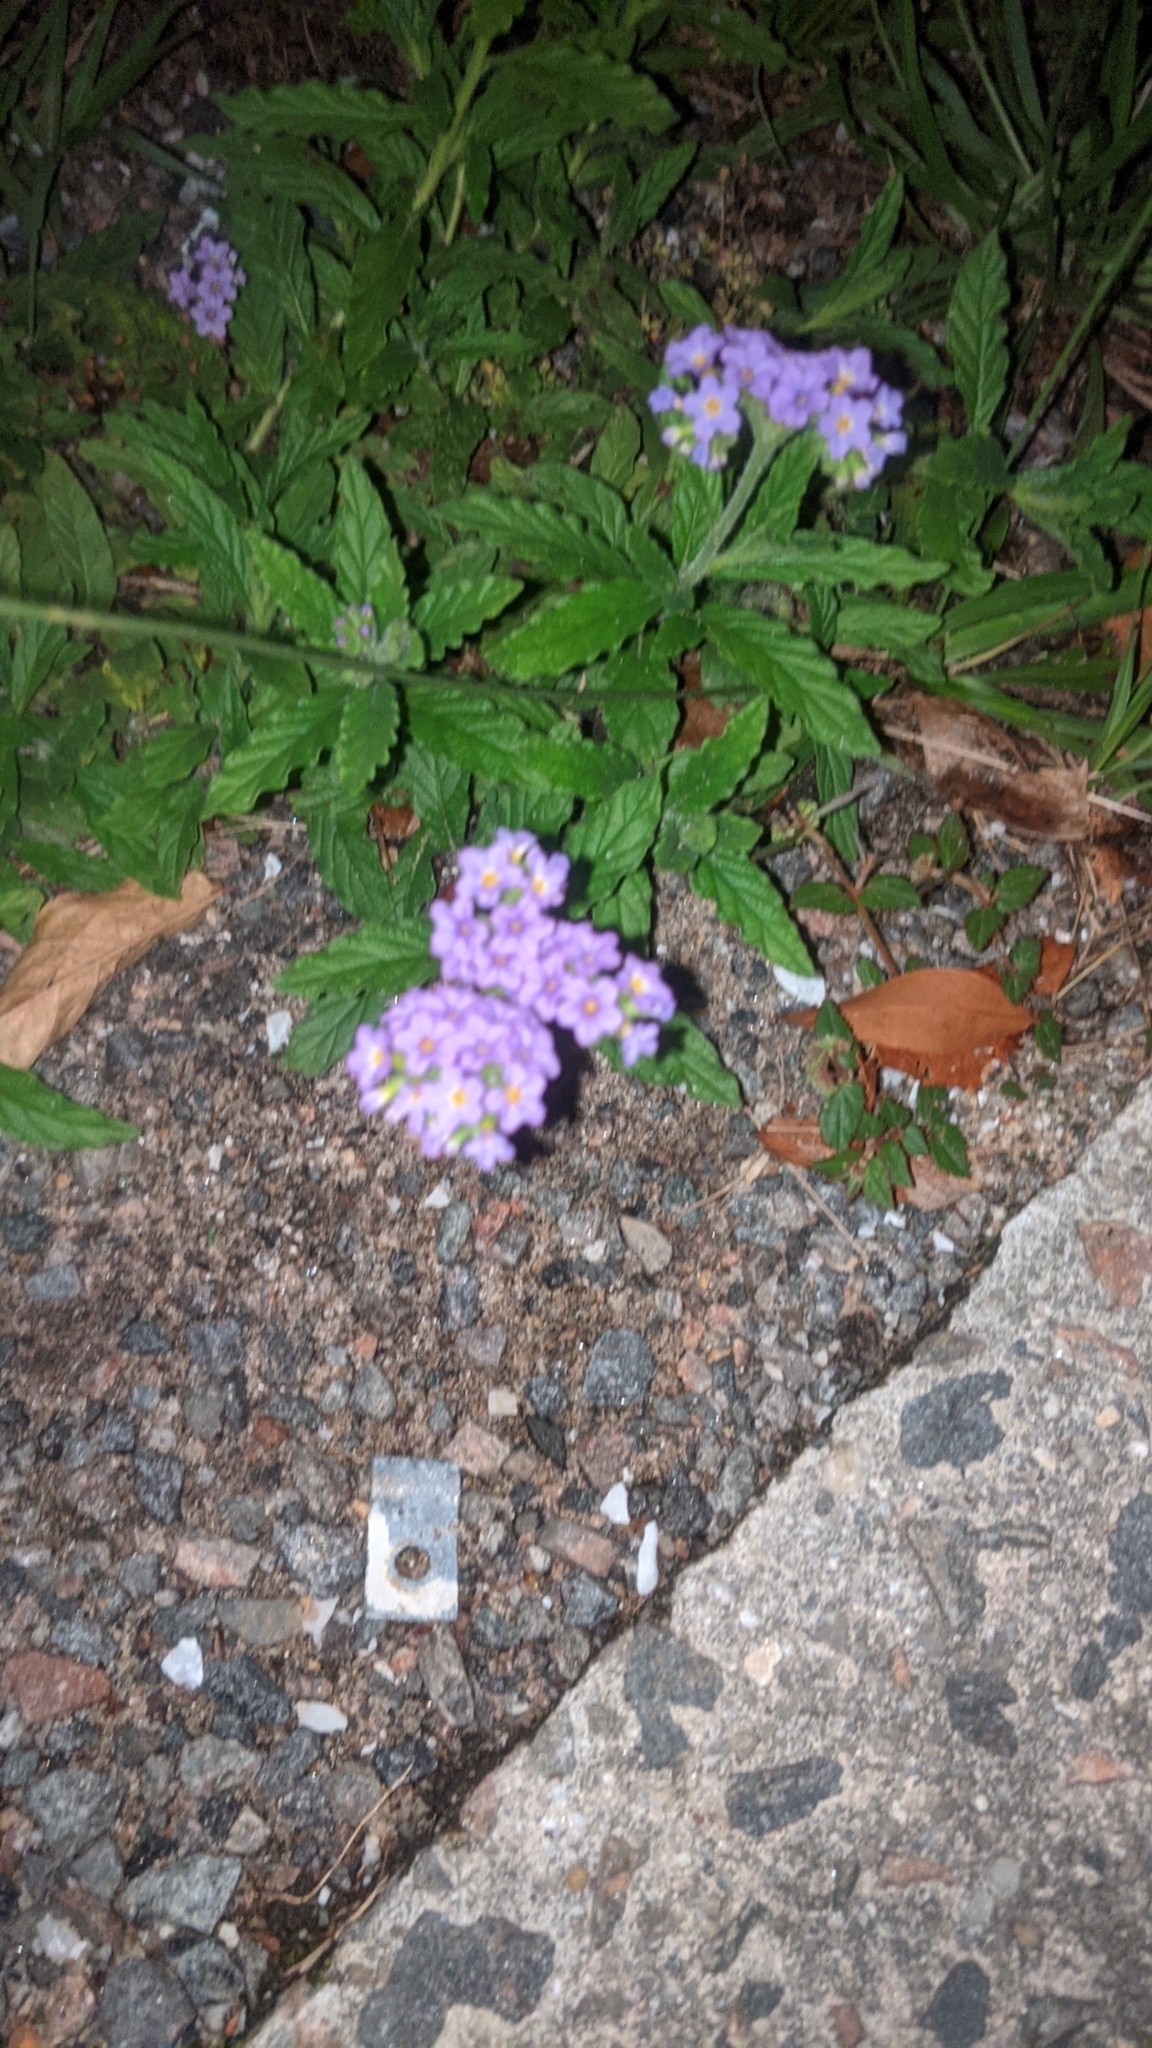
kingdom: Plantae
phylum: Tracheophyta
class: Magnoliopsida
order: Boraginales
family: Heliotropiaceae
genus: Heliotropium
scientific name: Heliotropium amplexicaule
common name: Clasping heliotrope
